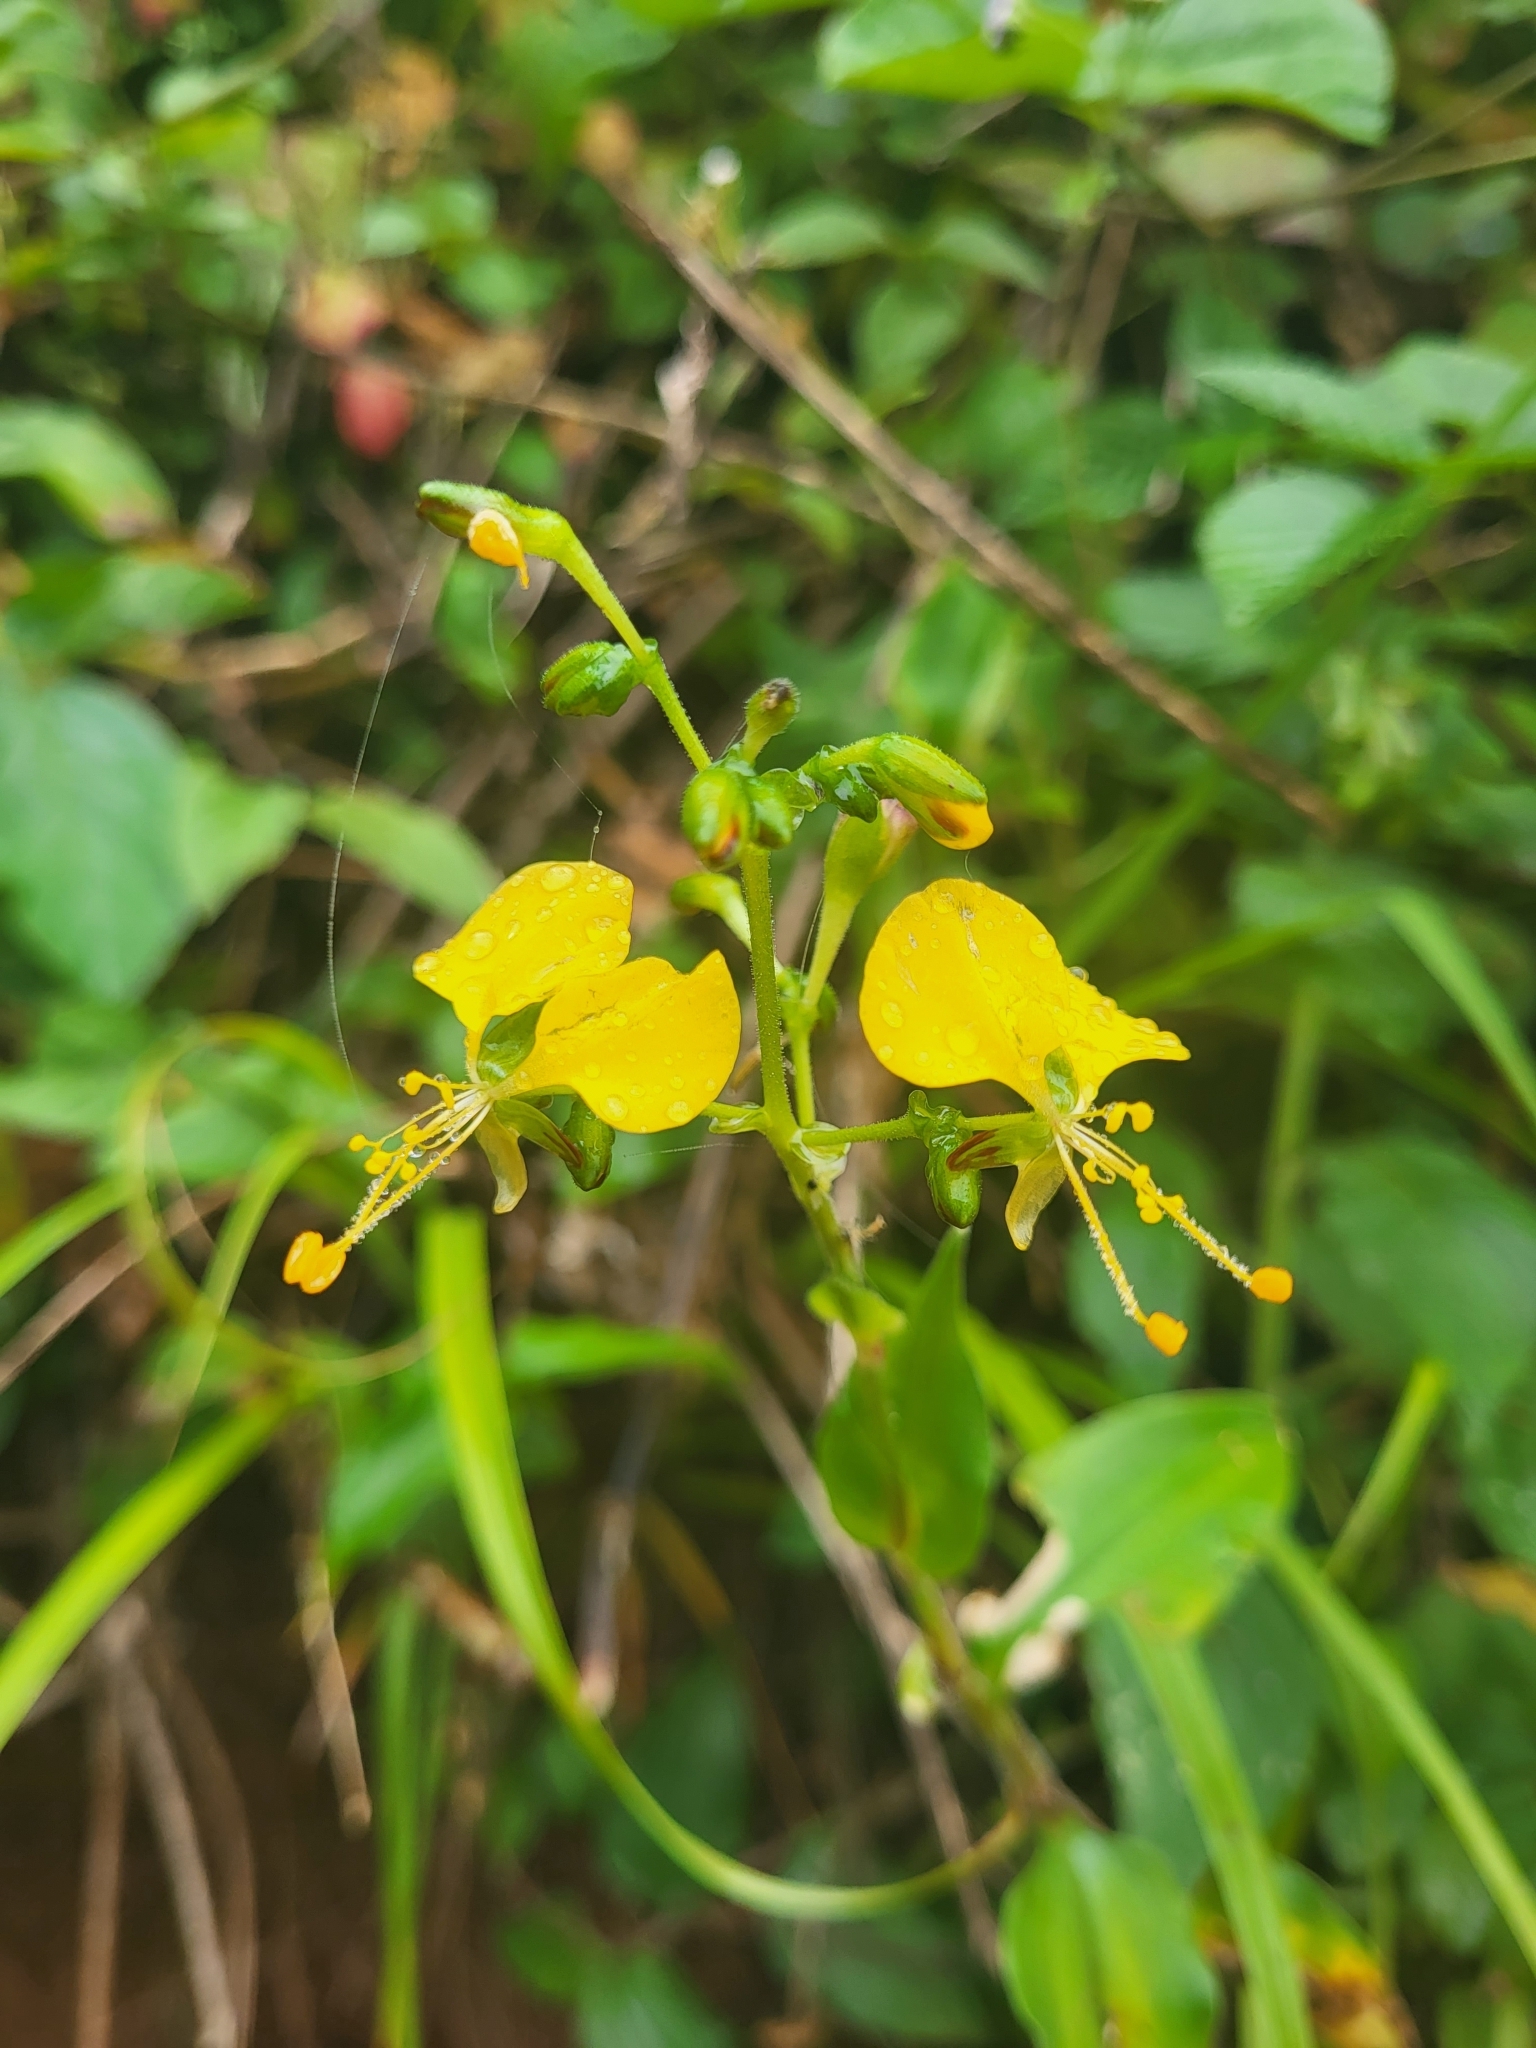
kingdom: Plantae
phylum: Tracheophyta
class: Liliopsida
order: Commelinales
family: Commelinaceae
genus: Aneilema
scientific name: Aneilema aequinoctiale
